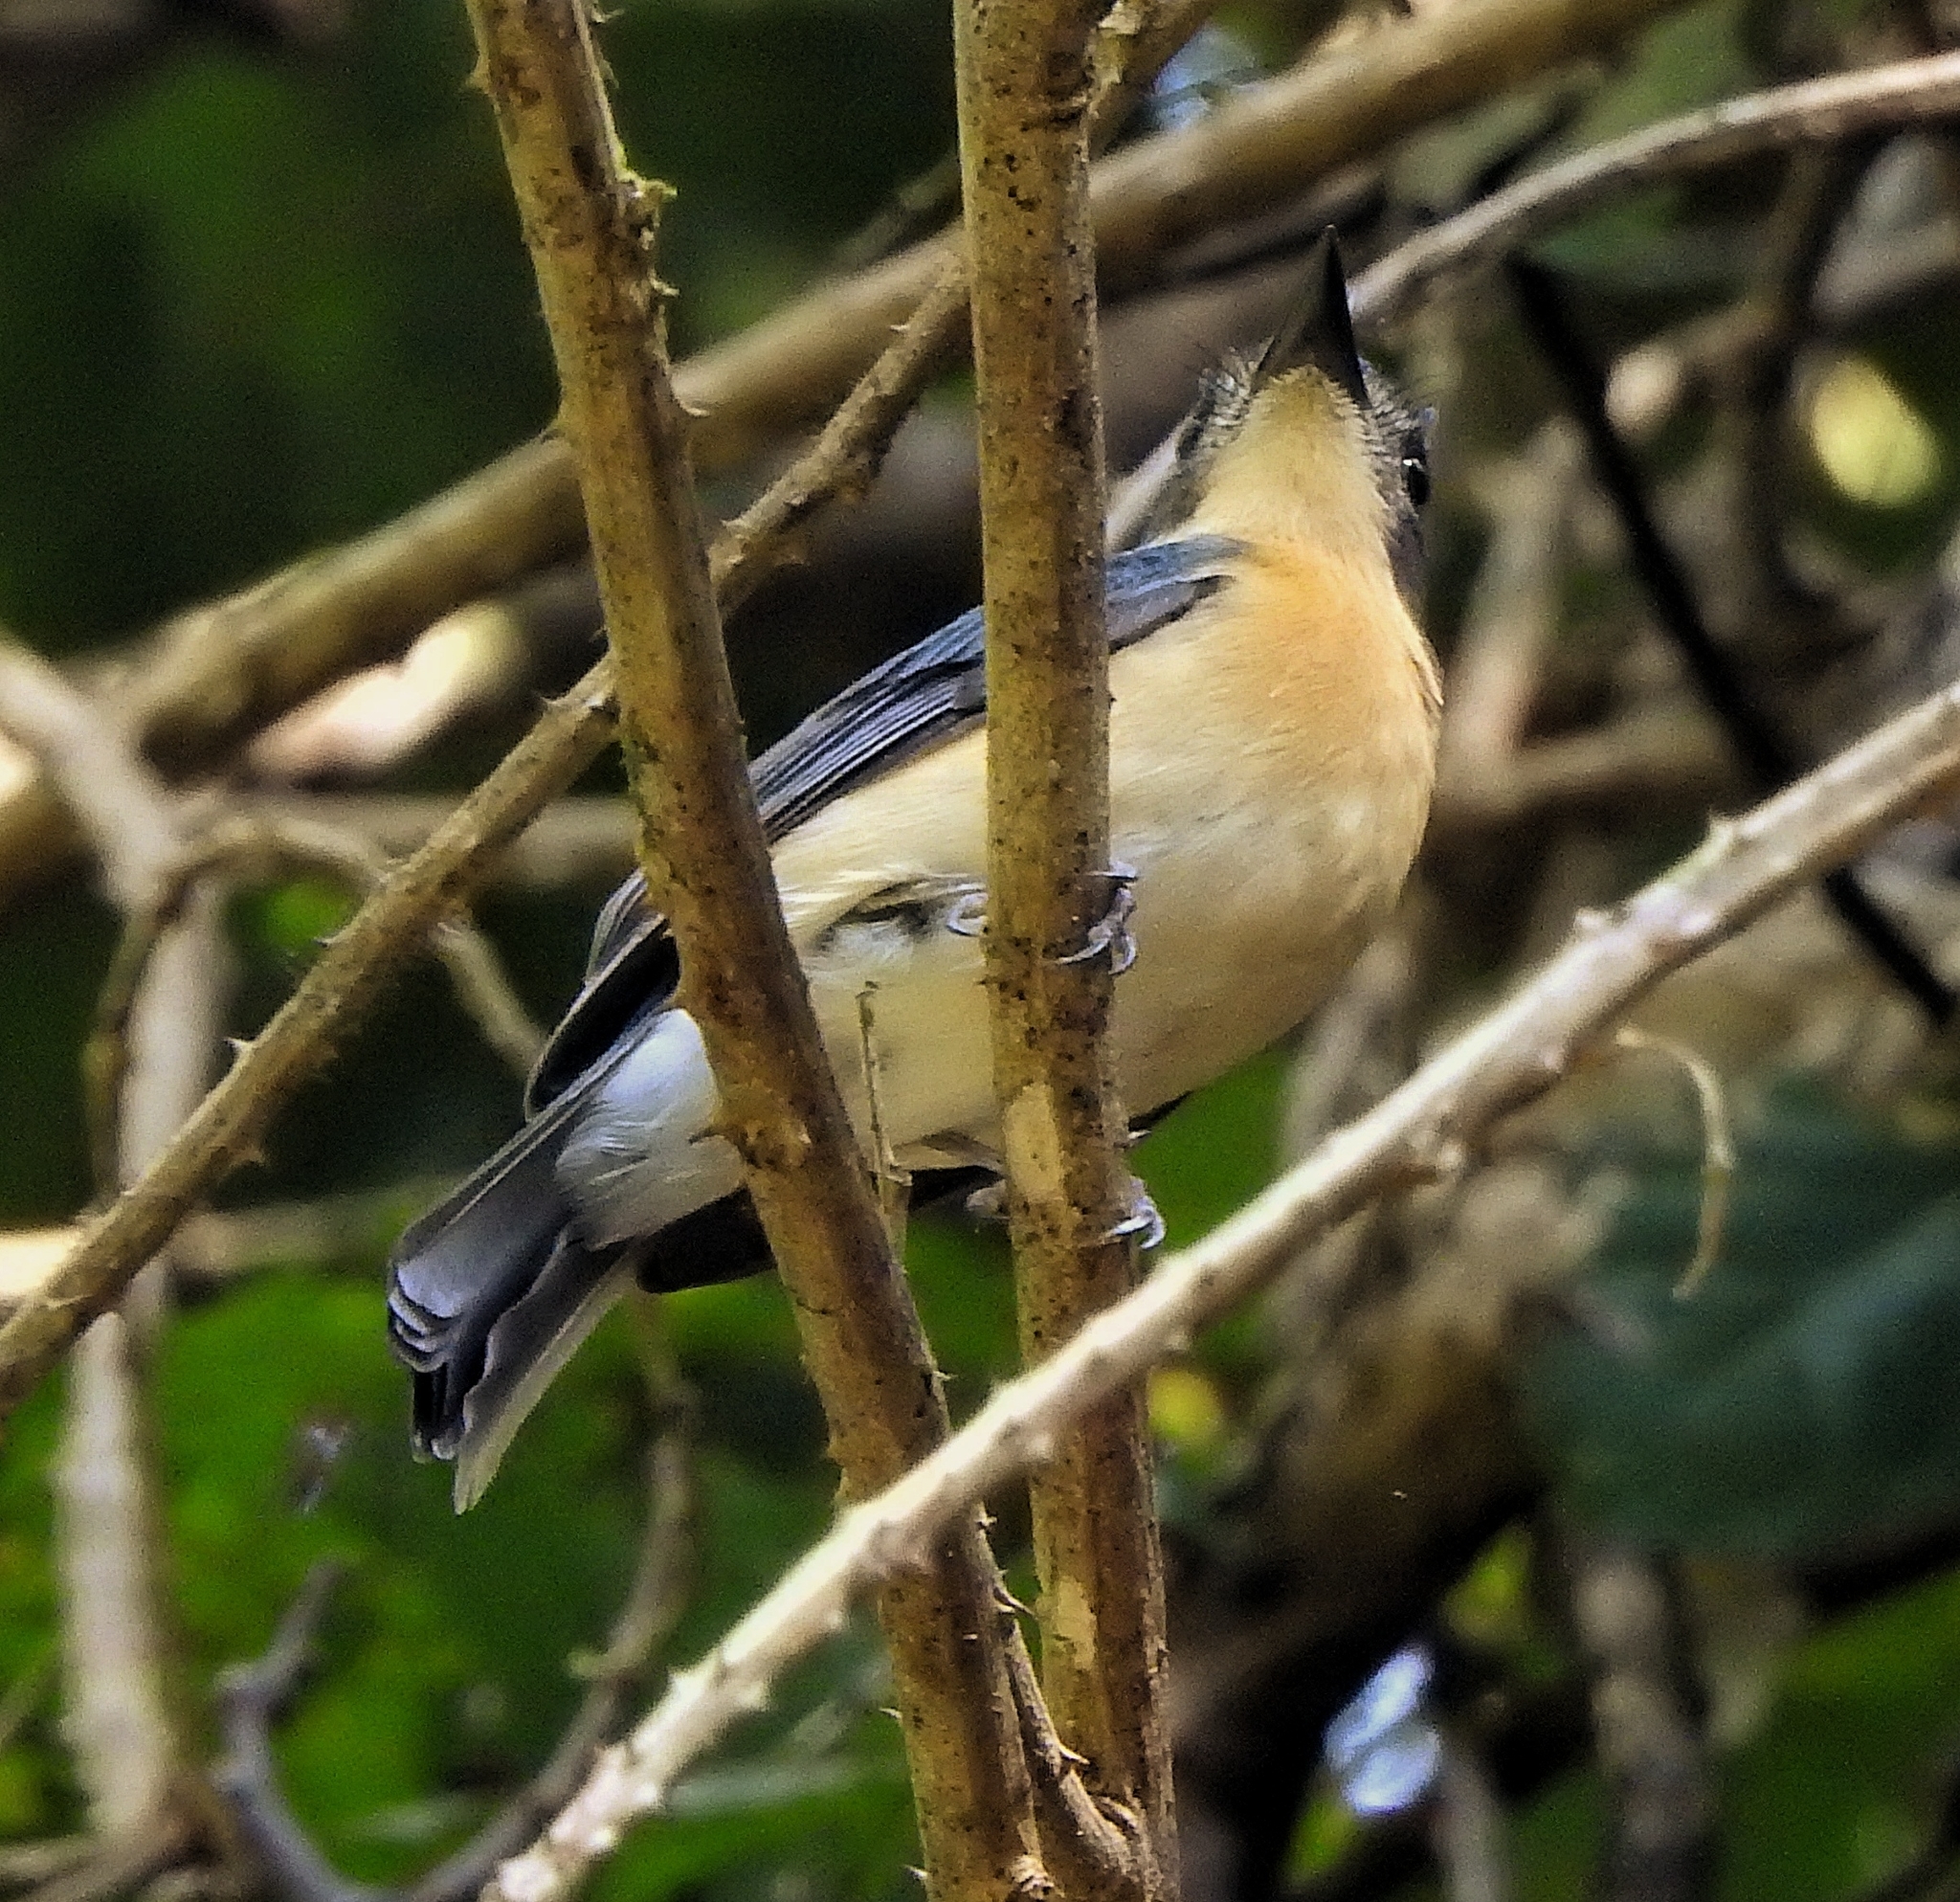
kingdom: Animalia
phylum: Chordata
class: Aves
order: Passeriformes
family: Muscicapidae
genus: Cyornis
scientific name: Cyornis tickelliae
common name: Tickell's blue flycatcher
